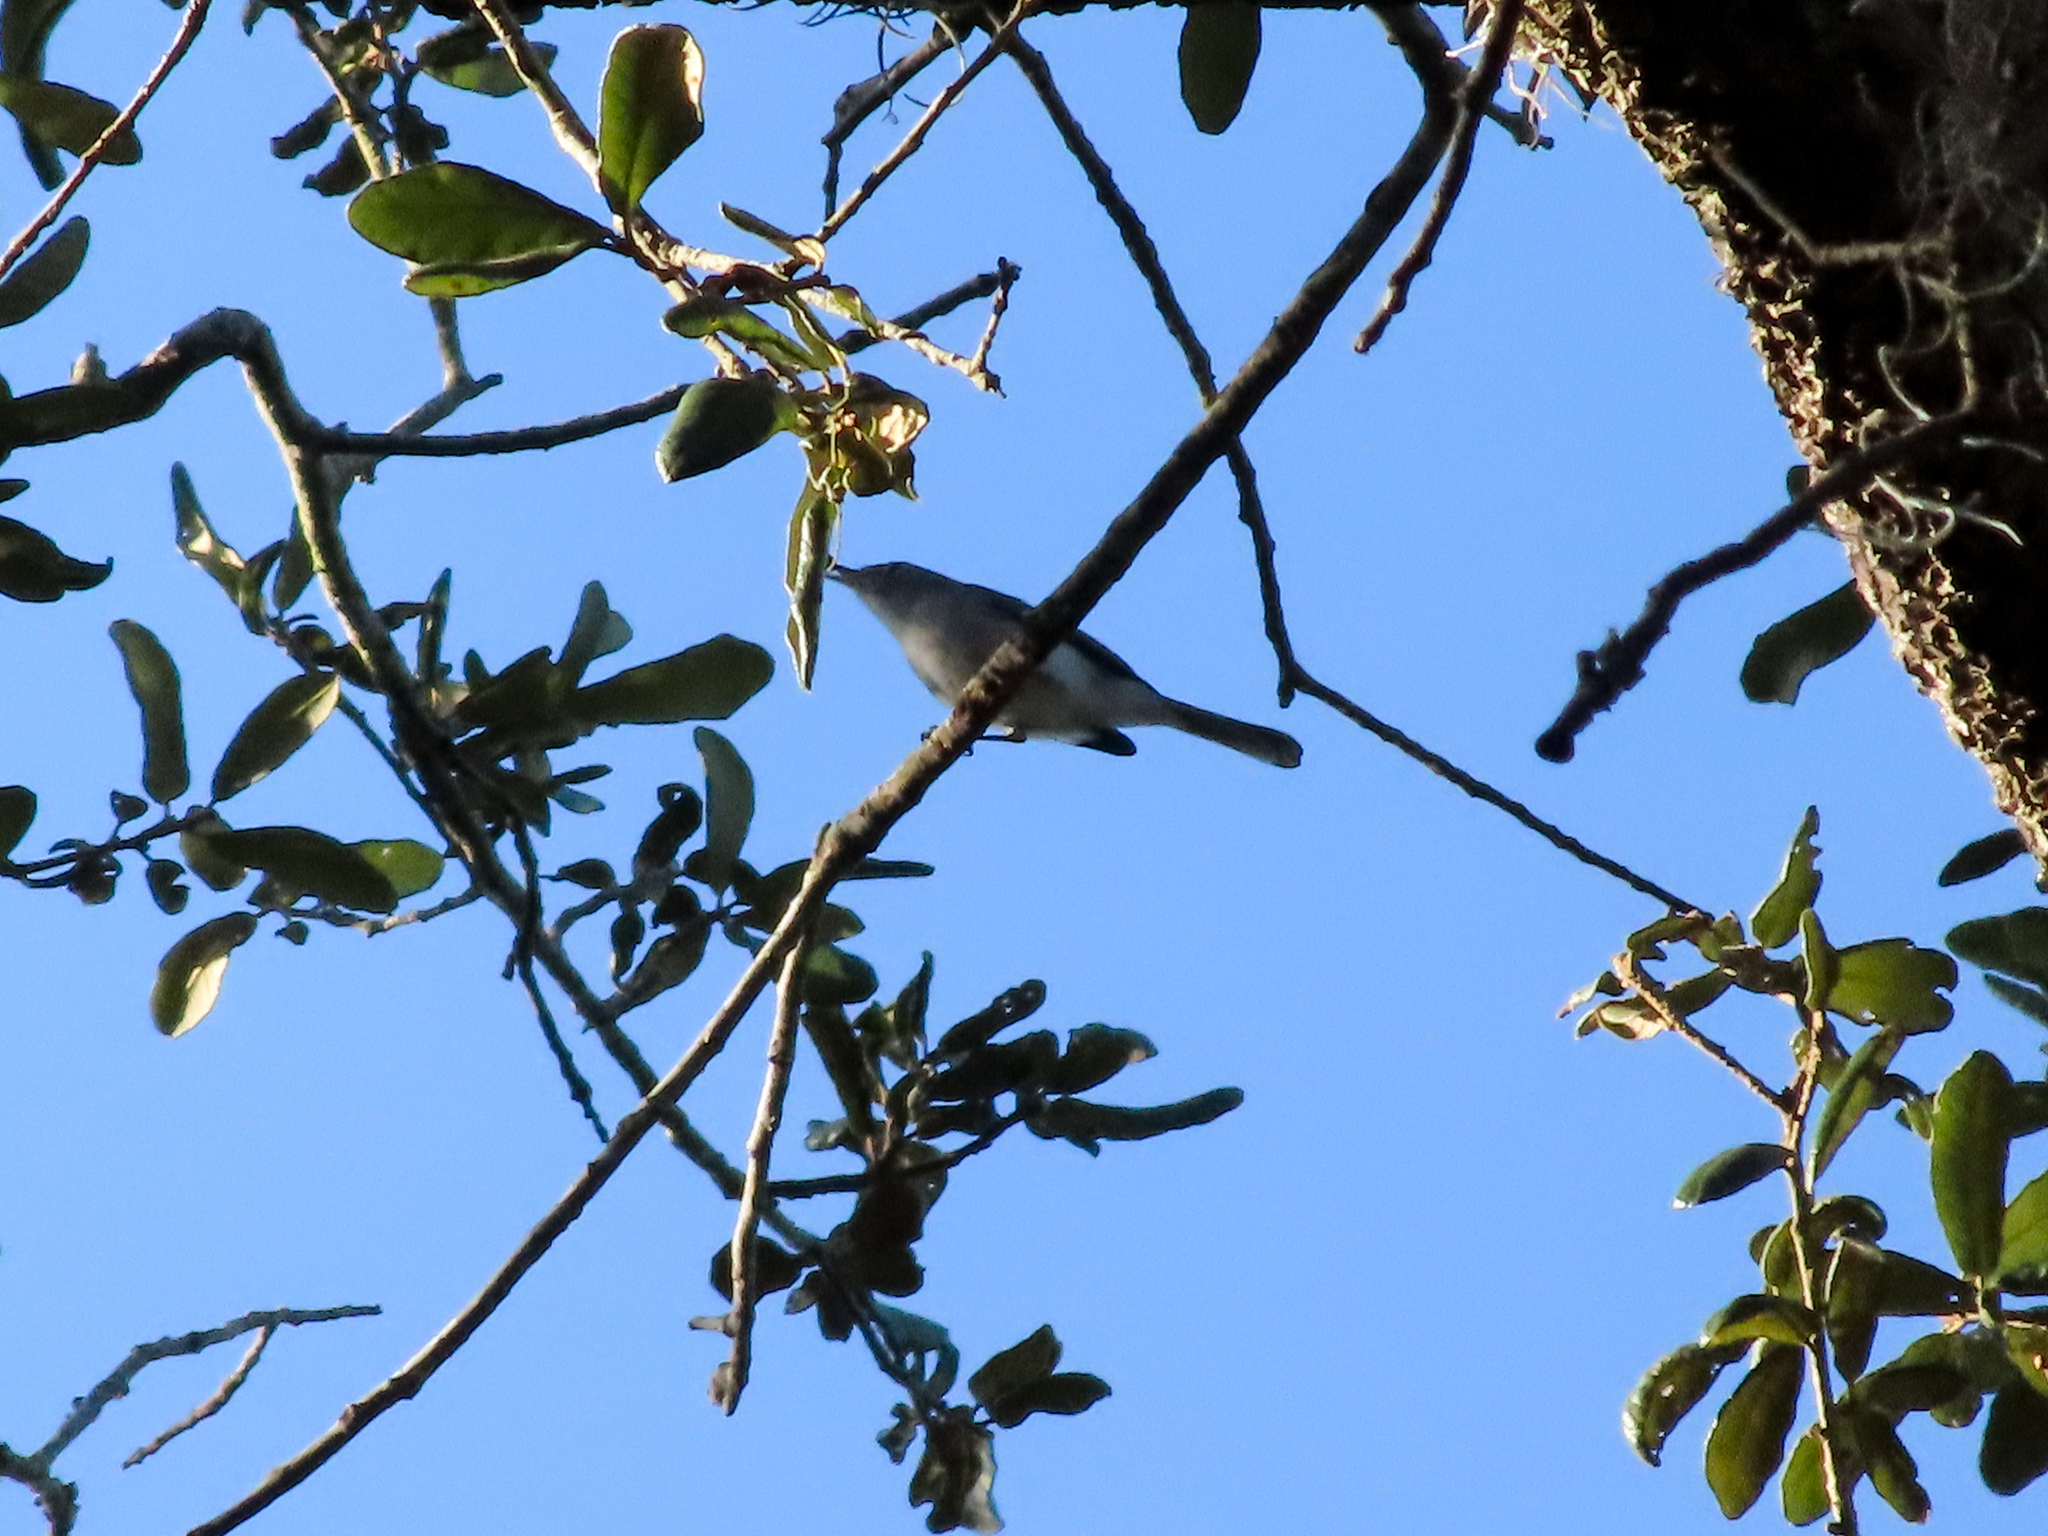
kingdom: Animalia
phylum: Chordata
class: Aves
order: Passeriformes
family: Polioptilidae
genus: Polioptila
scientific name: Polioptila caerulea
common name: Blue-gray gnatcatcher
